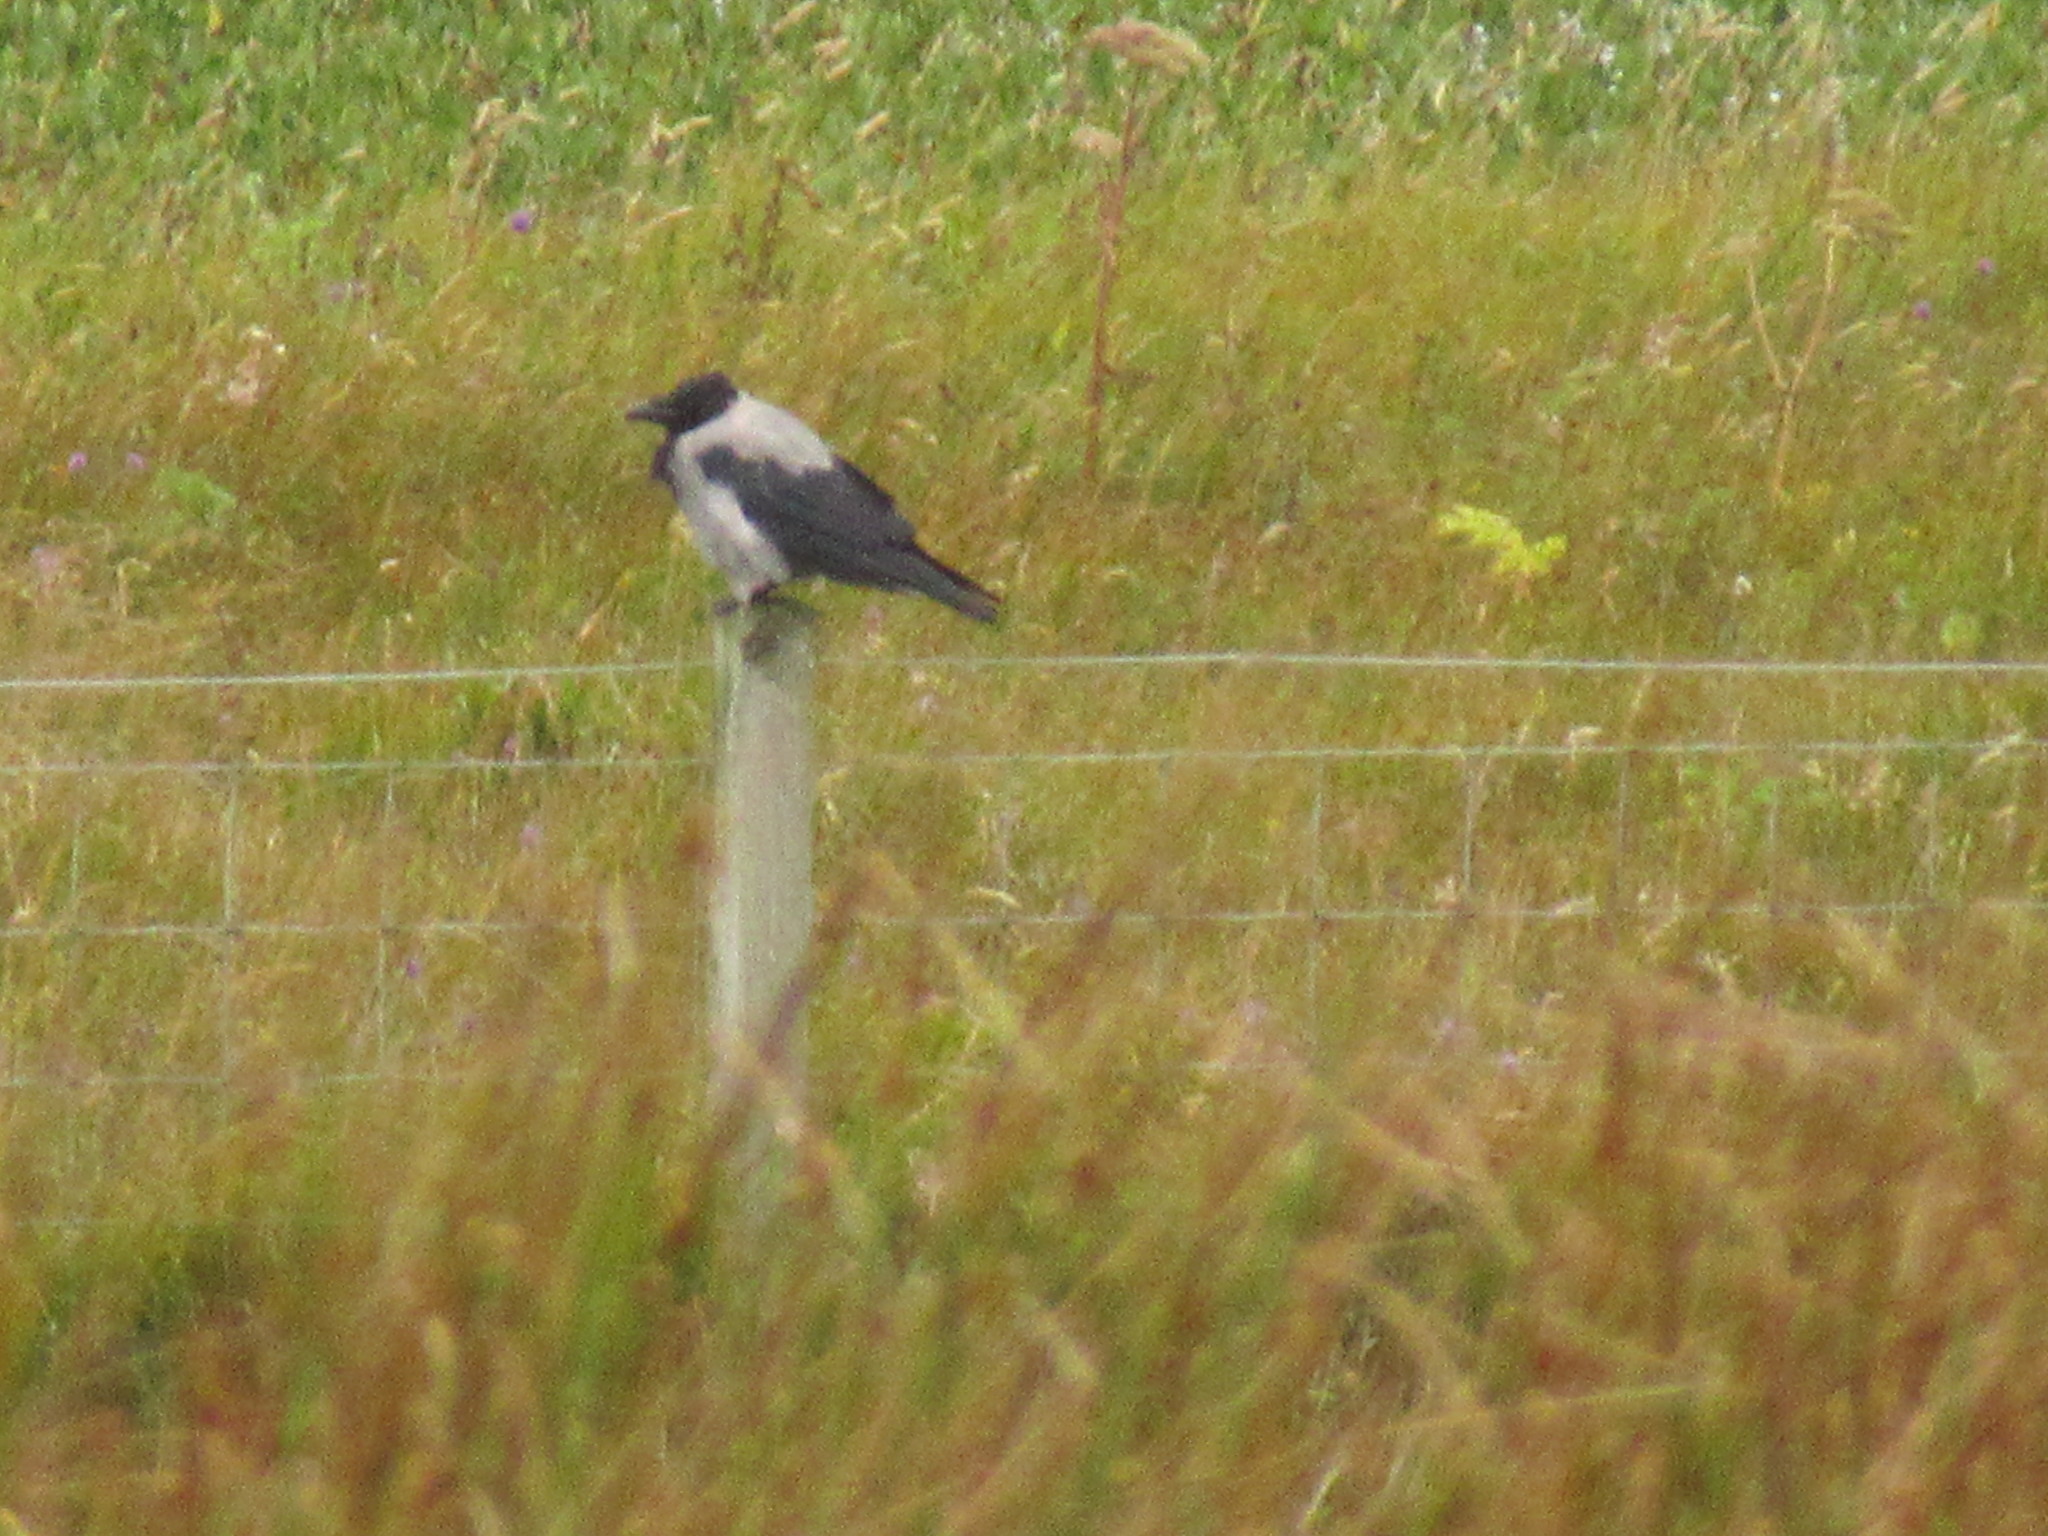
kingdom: Animalia
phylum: Chordata
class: Aves
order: Passeriformes
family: Corvidae
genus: Corvus
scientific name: Corvus cornix
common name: Hooded crow
